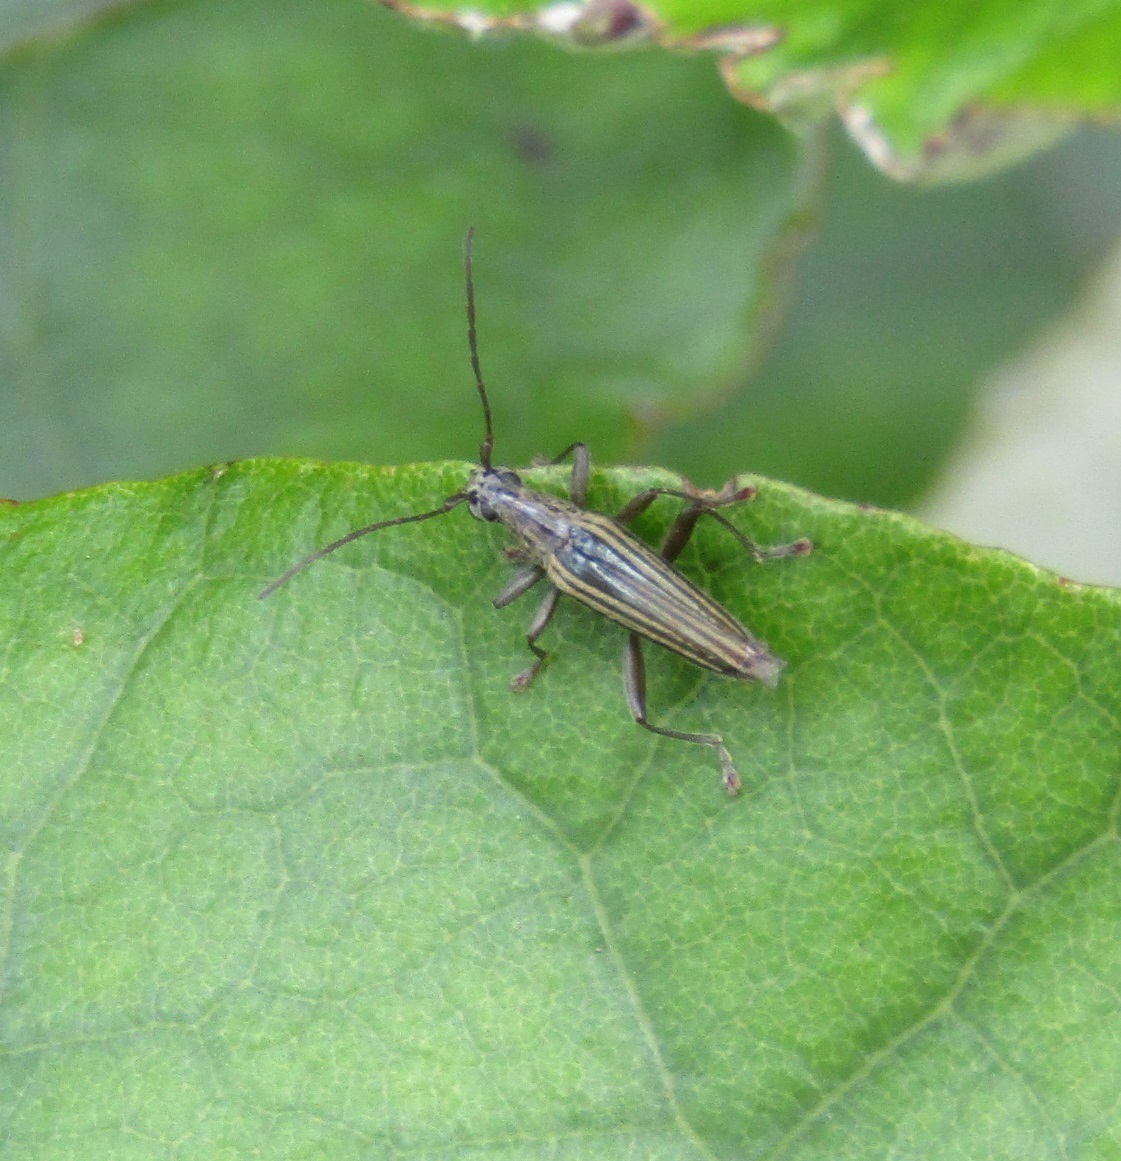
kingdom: Animalia
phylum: Arthropoda
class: Insecta
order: Coleoptera
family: Cerambycidae
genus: Coptomma
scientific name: Coptomma sulcatum
